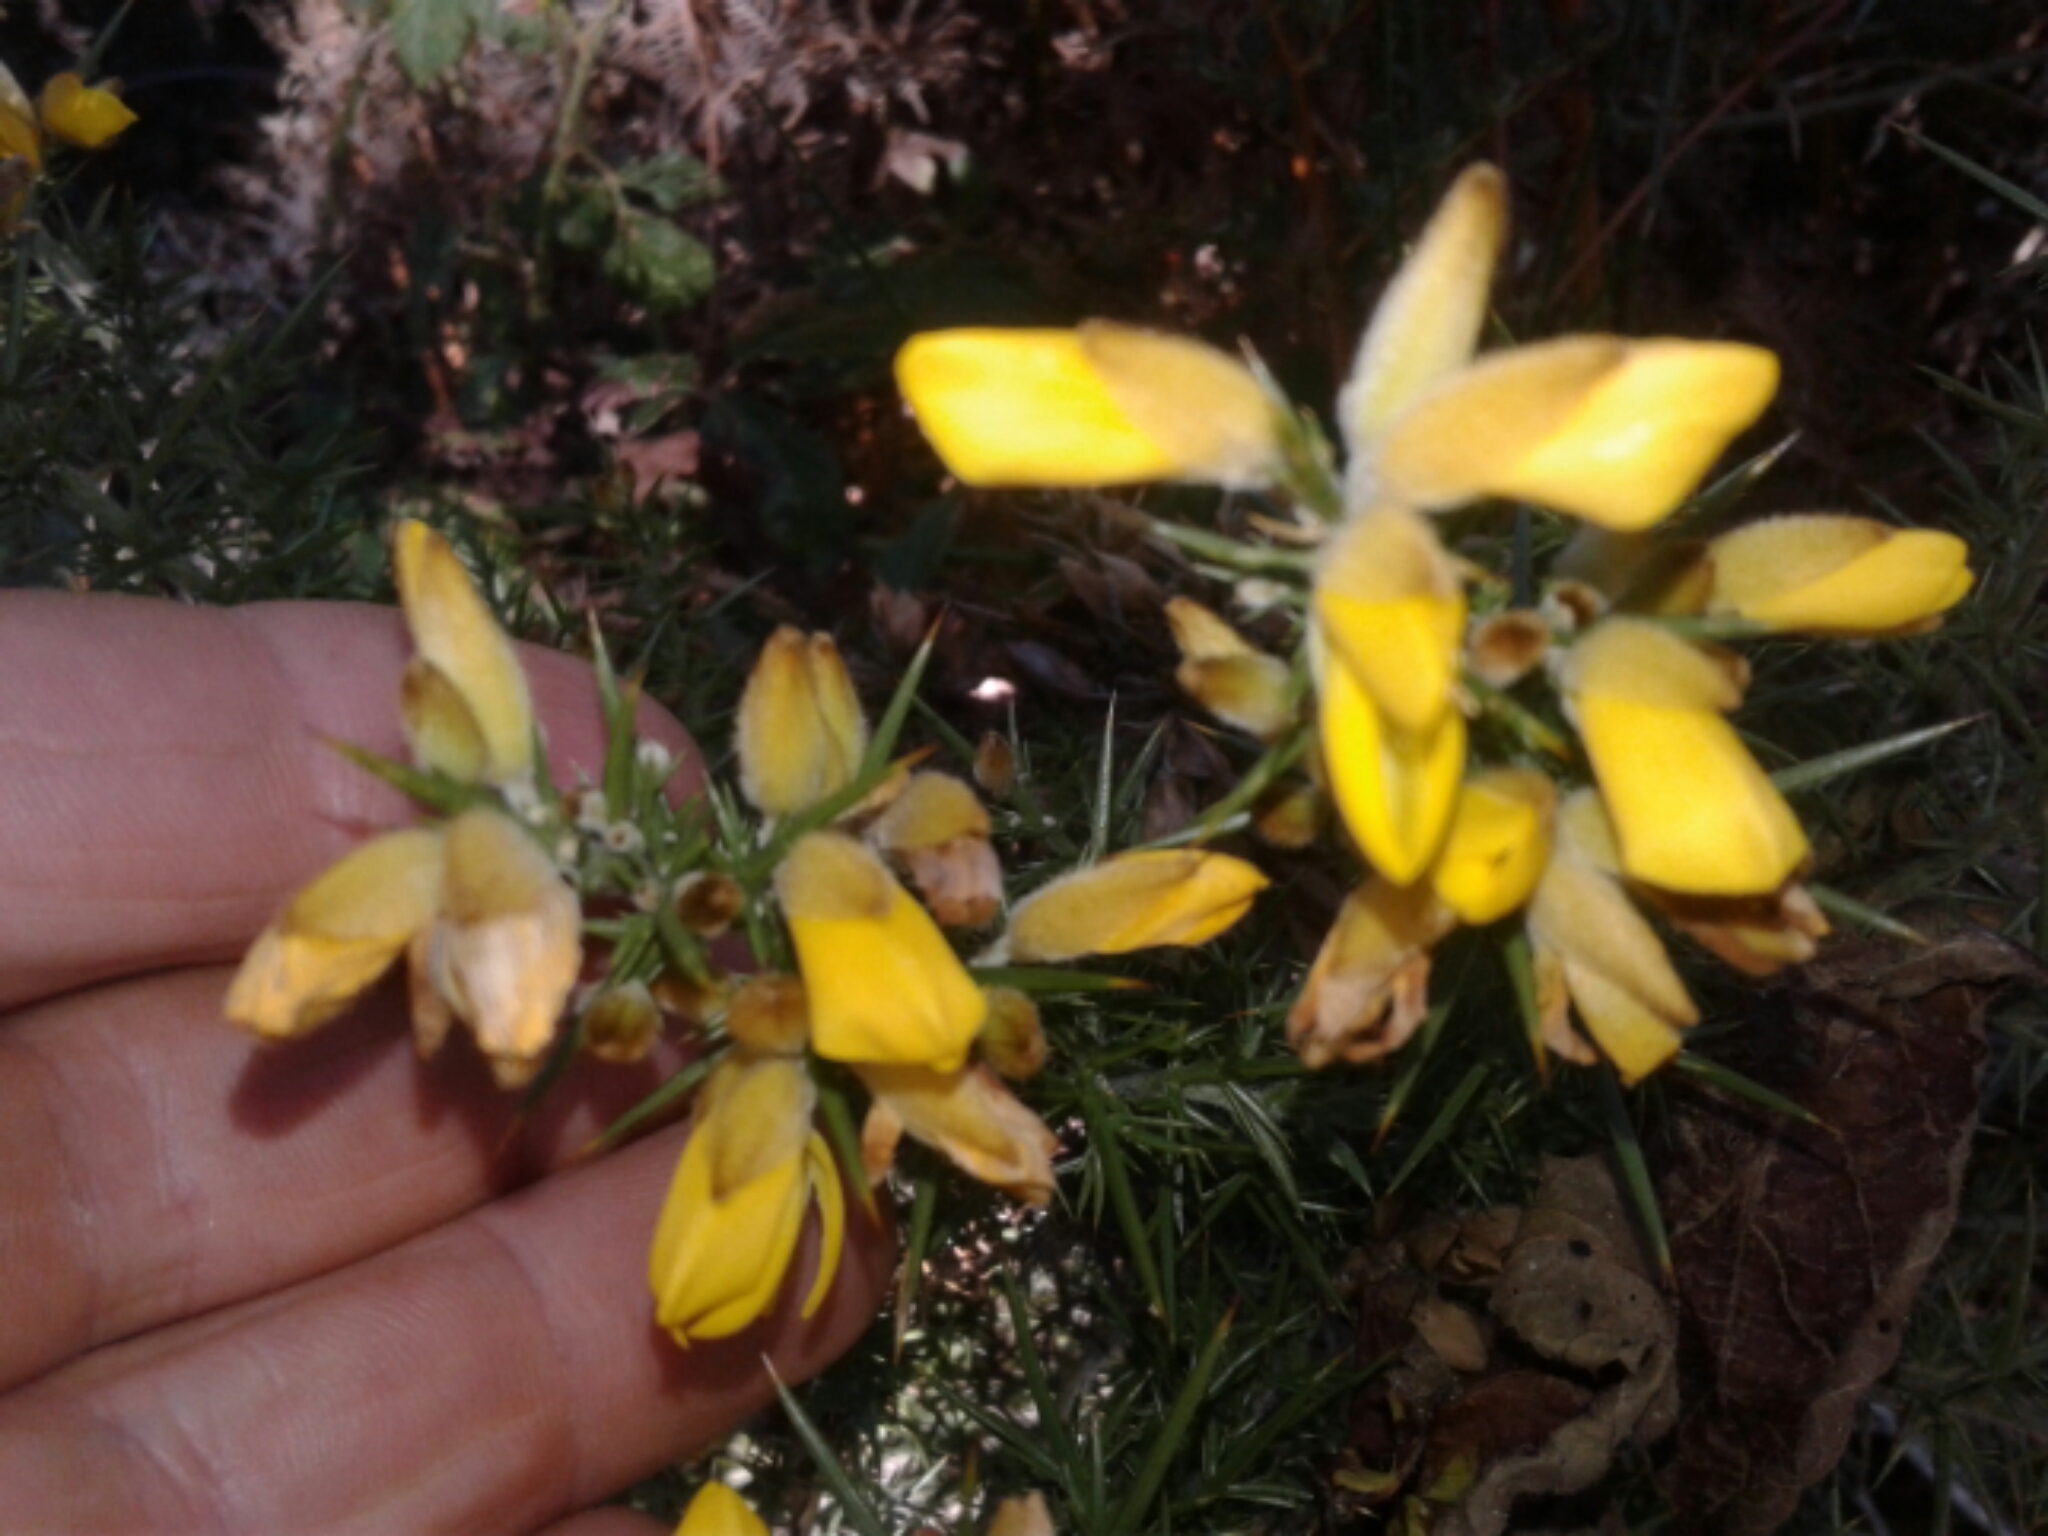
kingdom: Plantae
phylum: Tracheophyta
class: Magnoliopsida
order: Fabales
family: Fabaceae
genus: Ulex
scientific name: Ulex europaeus
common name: Common gorse
